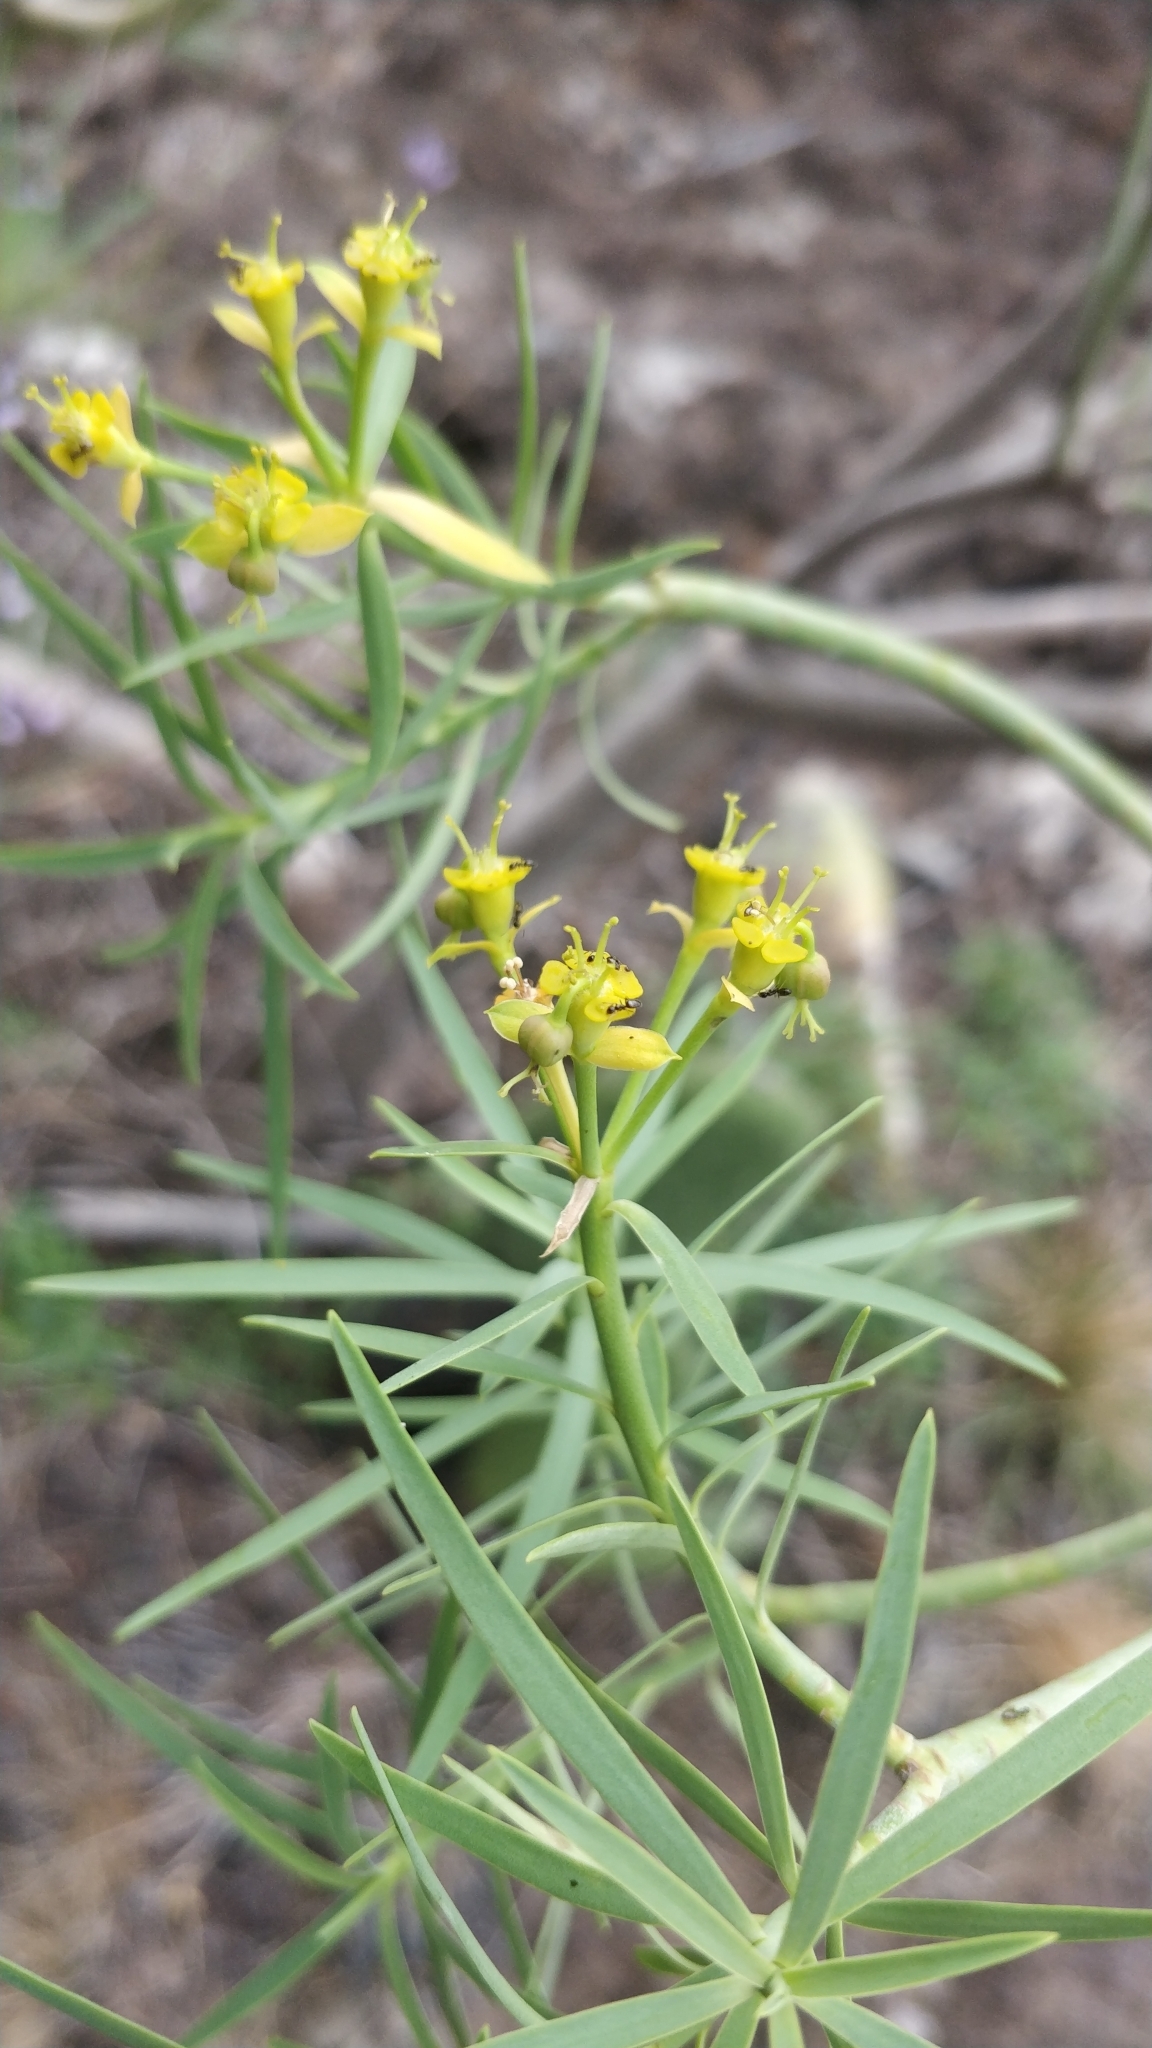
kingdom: Plantae
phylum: Tracheophyta
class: Magnoliopsida
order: Malpighiales
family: Euphorbiaceae
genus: Euphorbia
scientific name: Euphorbia lamarckii
